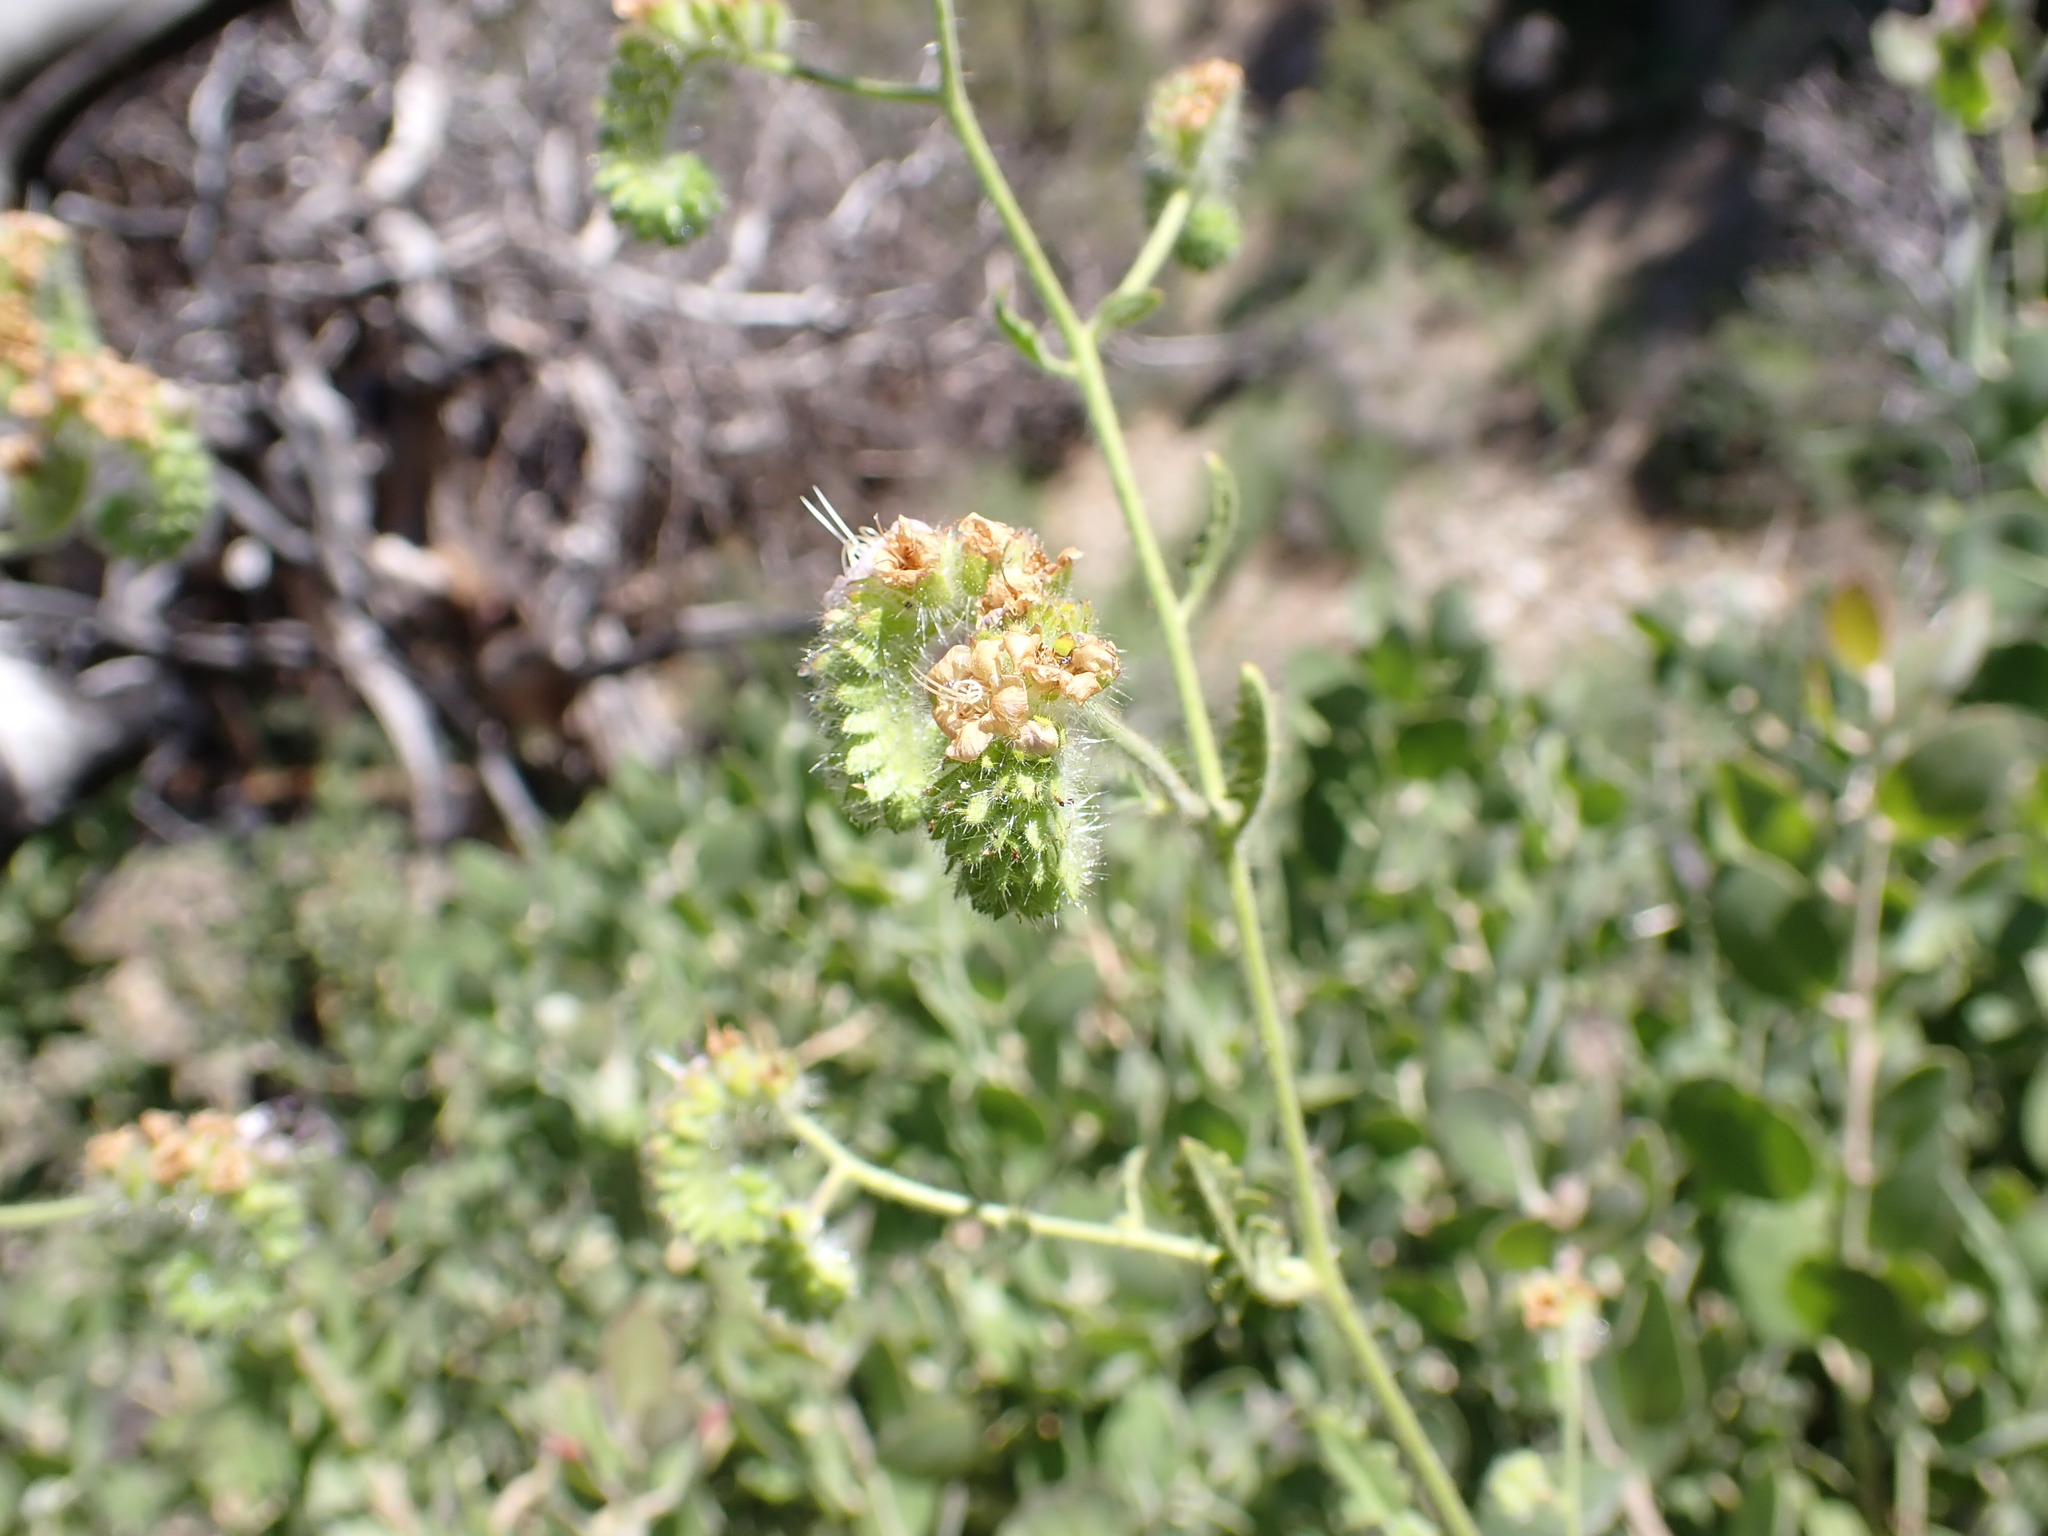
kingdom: Plantae
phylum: Tracheophyta
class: Magnoliopsida
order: Boraginales
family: Hydrophyllaceae
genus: Phacelia
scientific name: Phacelia ramosissima
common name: Branching phacelia
